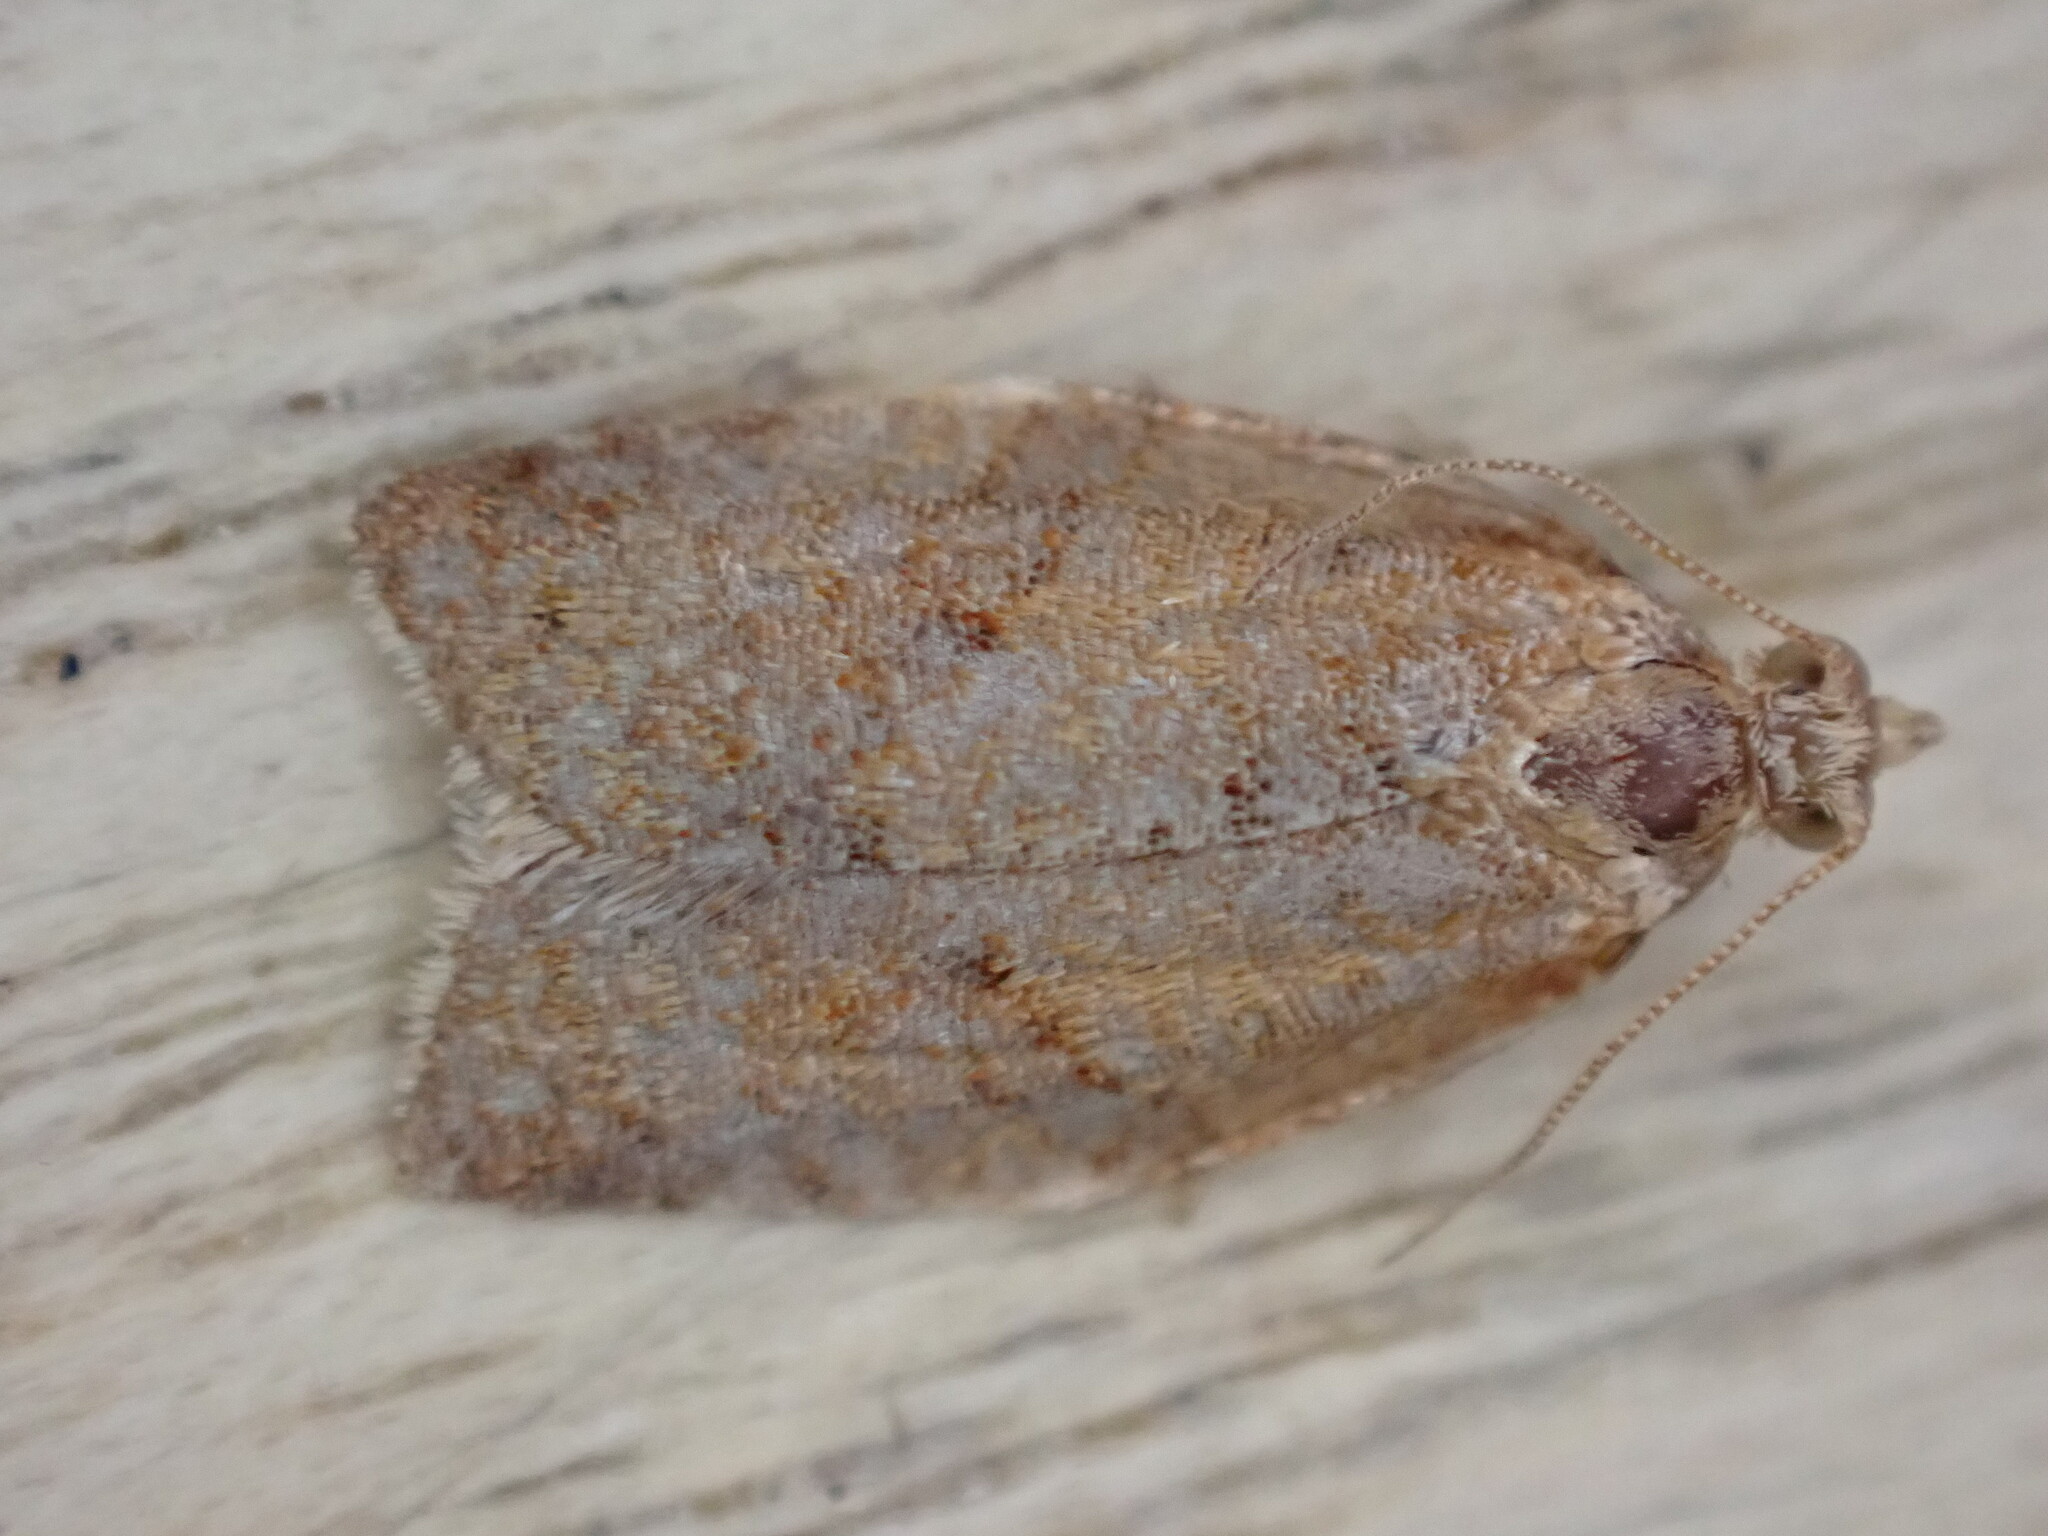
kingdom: Animalia
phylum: Arthropoda
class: Insecta
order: Lepidoptera
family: Tortricidae
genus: Clepsis
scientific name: Clepsis consimilana
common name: Privet tortrix
